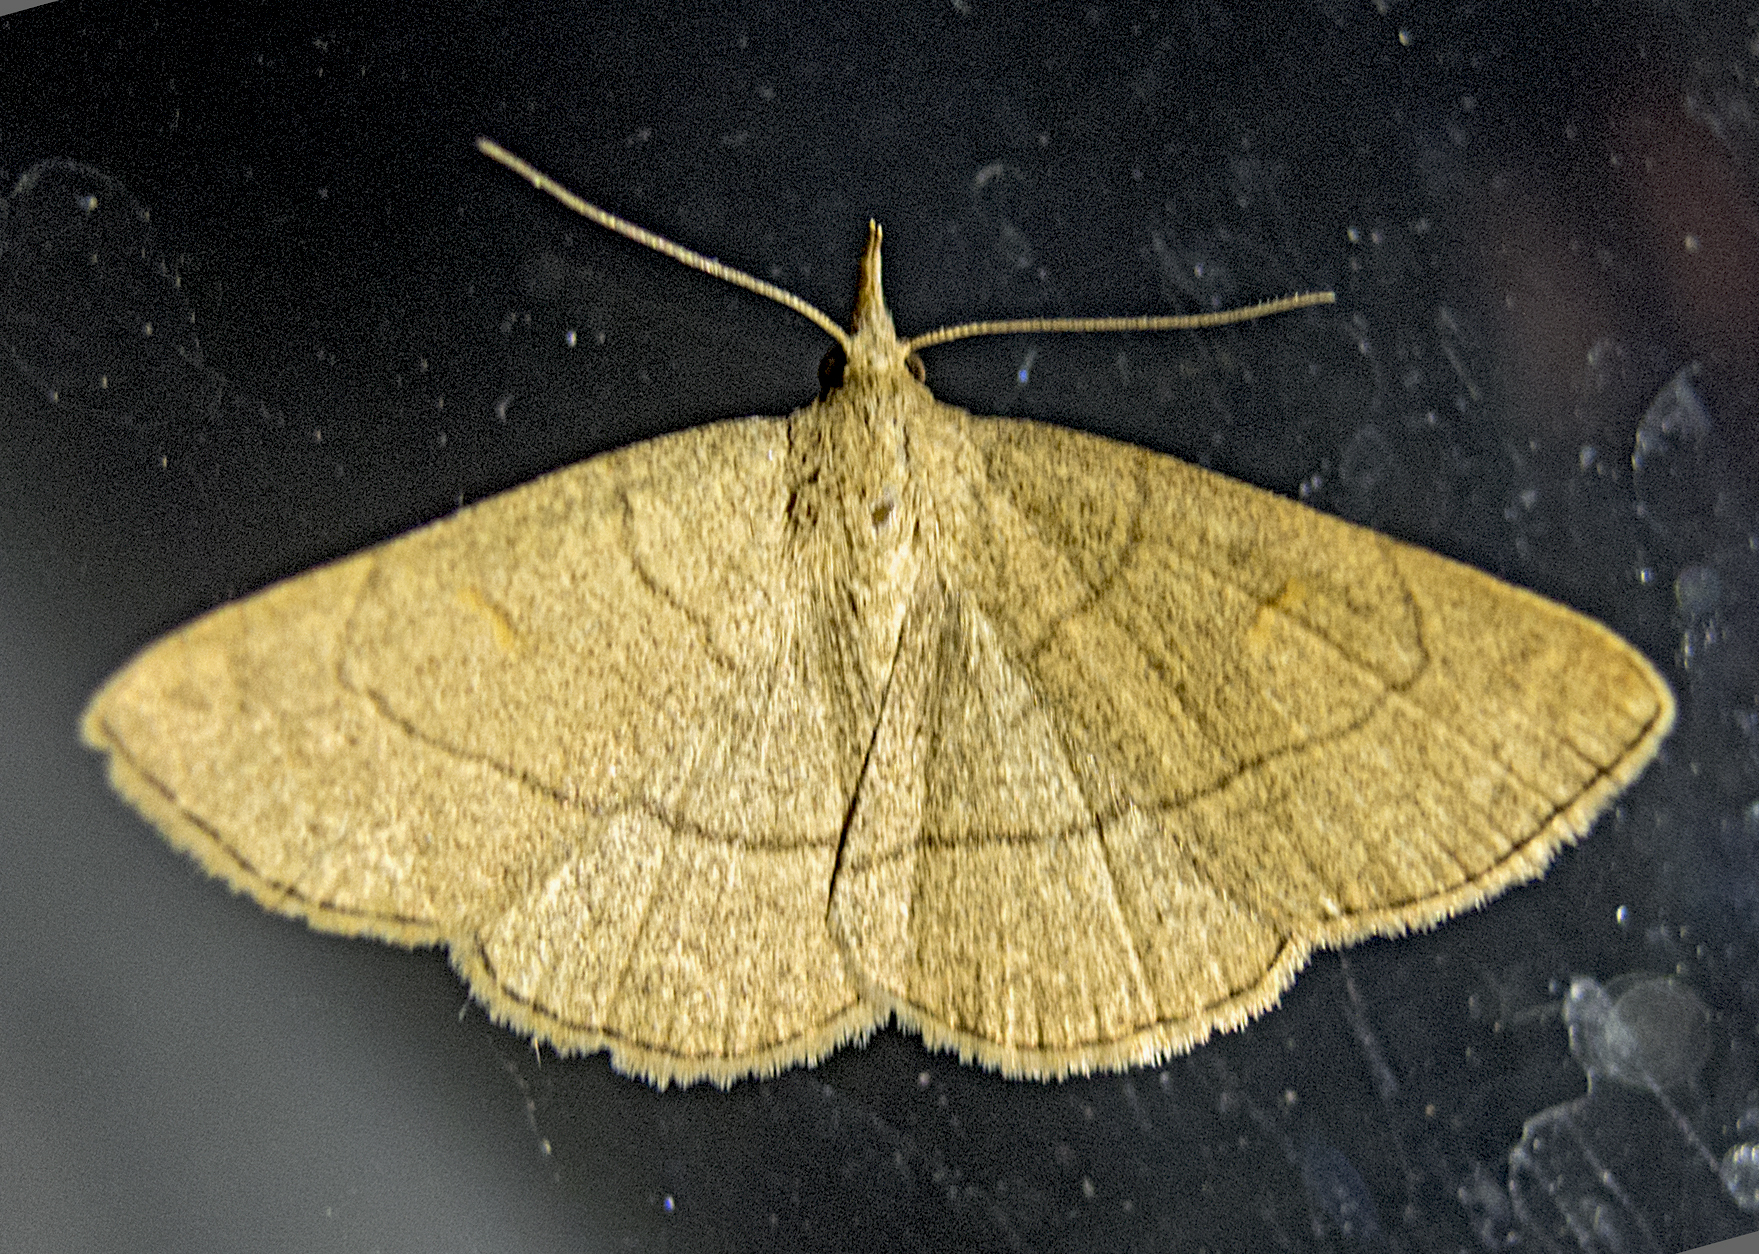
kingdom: Animalia
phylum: Arthropoda
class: Insecta
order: Lepidoptera
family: Erebidae
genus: Paracolax
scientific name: Paracolax tristalis
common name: Clay fan-foot
